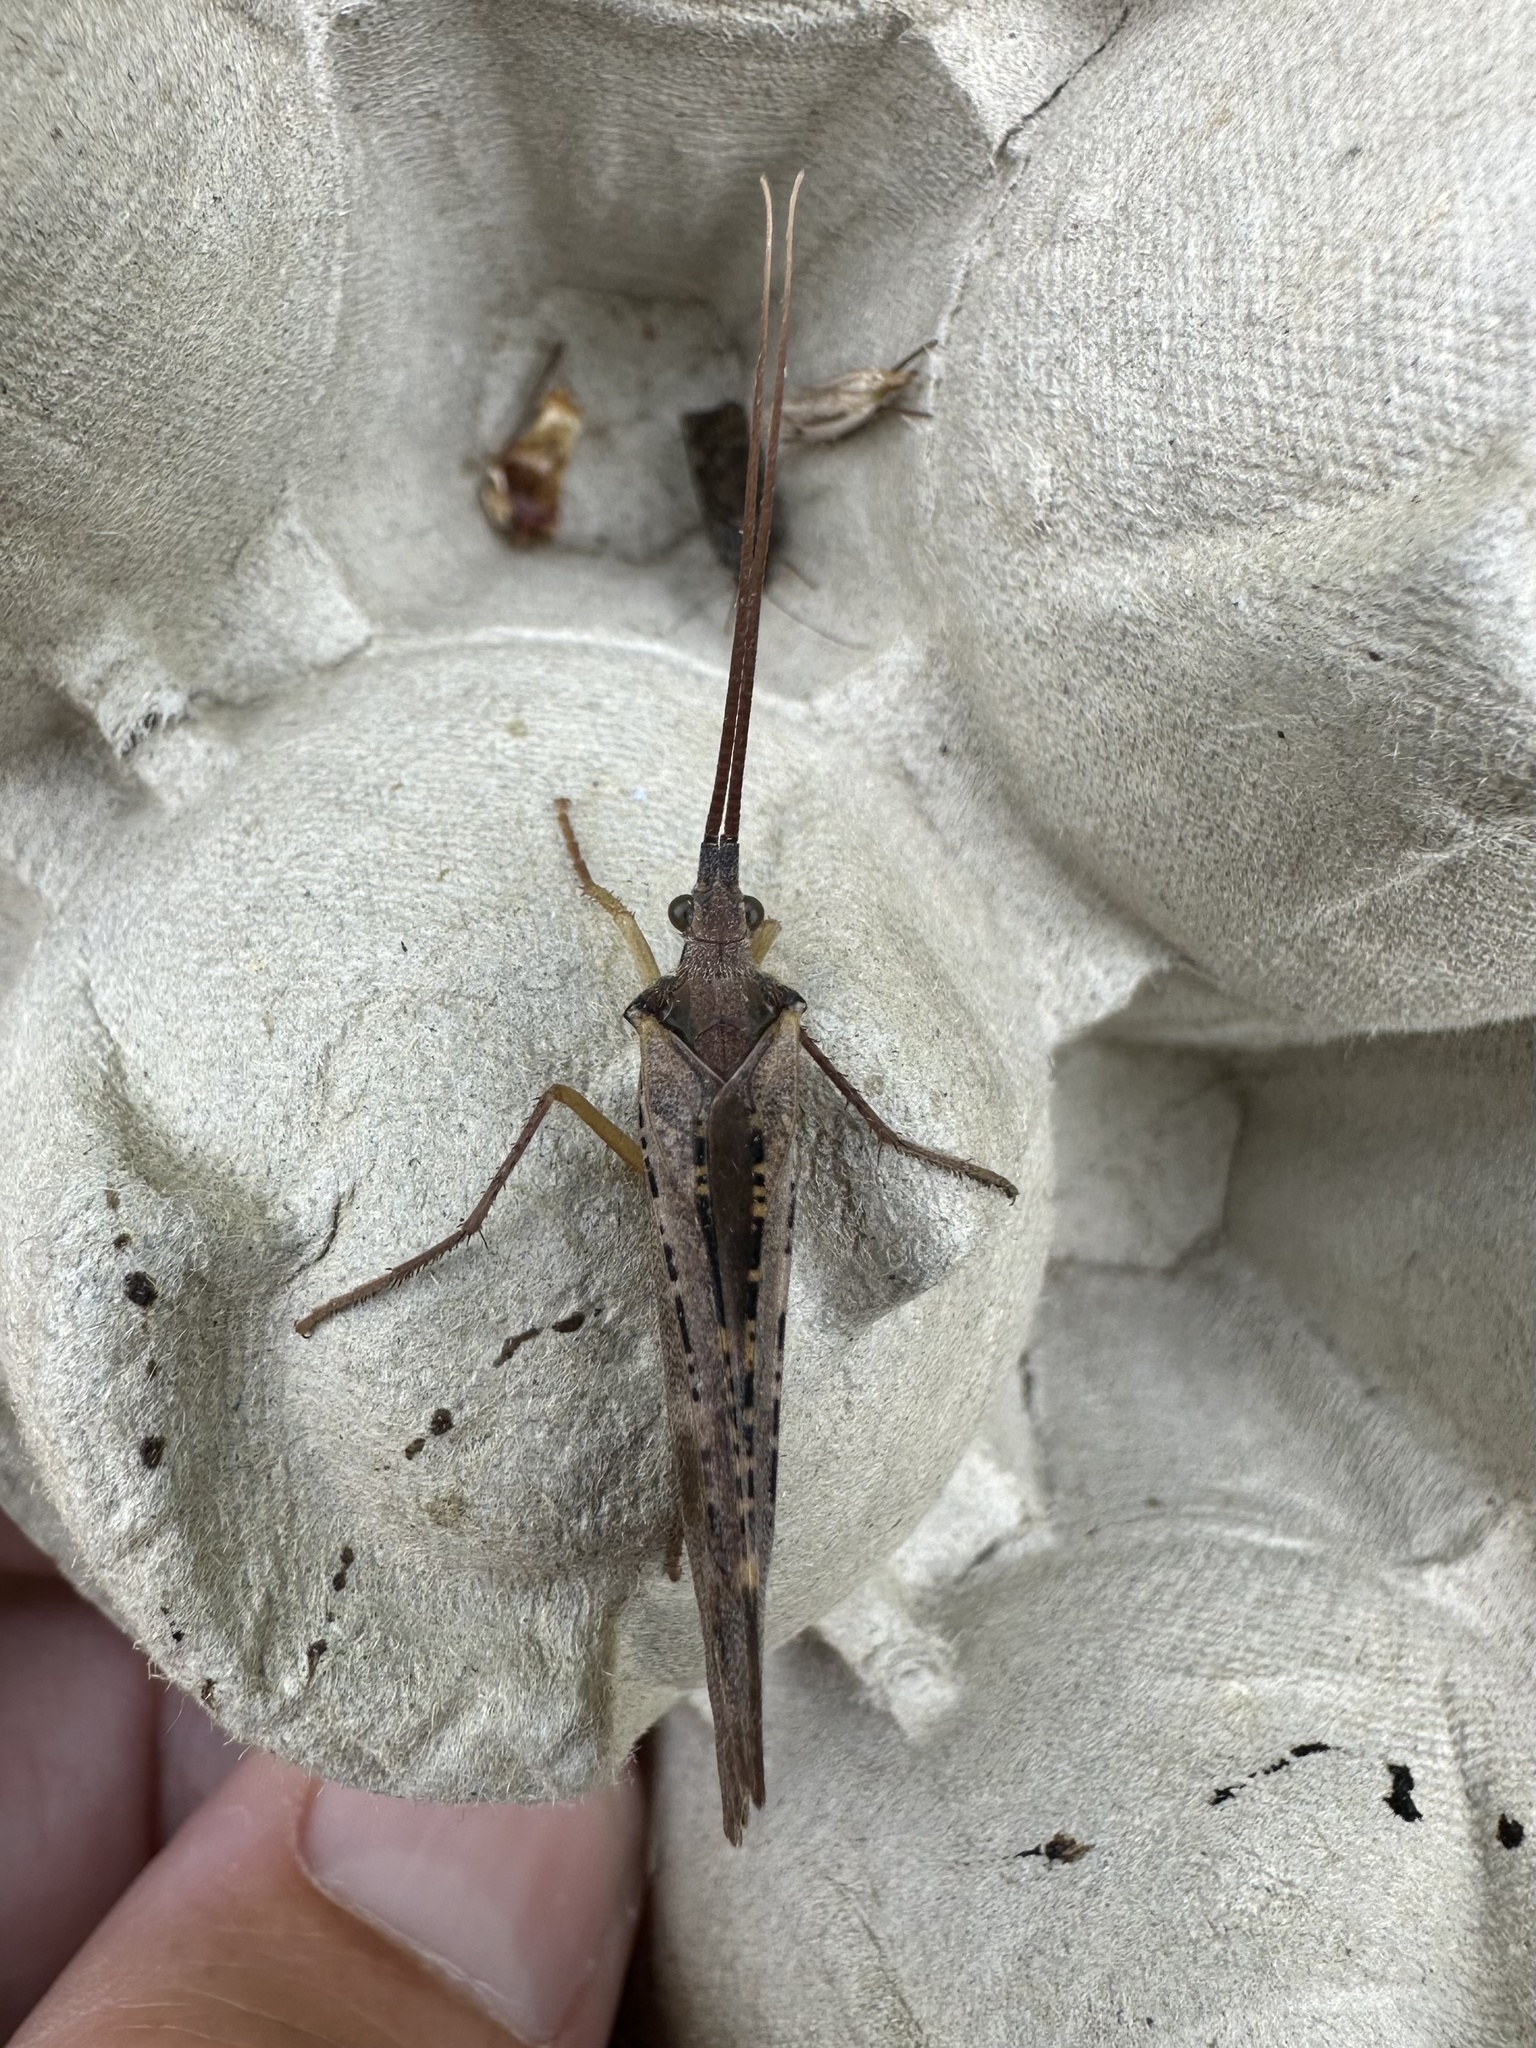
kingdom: Animalia
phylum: Arthropoda
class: Insecta
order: Trichoptera
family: Limnephilidae
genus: Nemotaulius
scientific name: Nemotaulius hostilis
